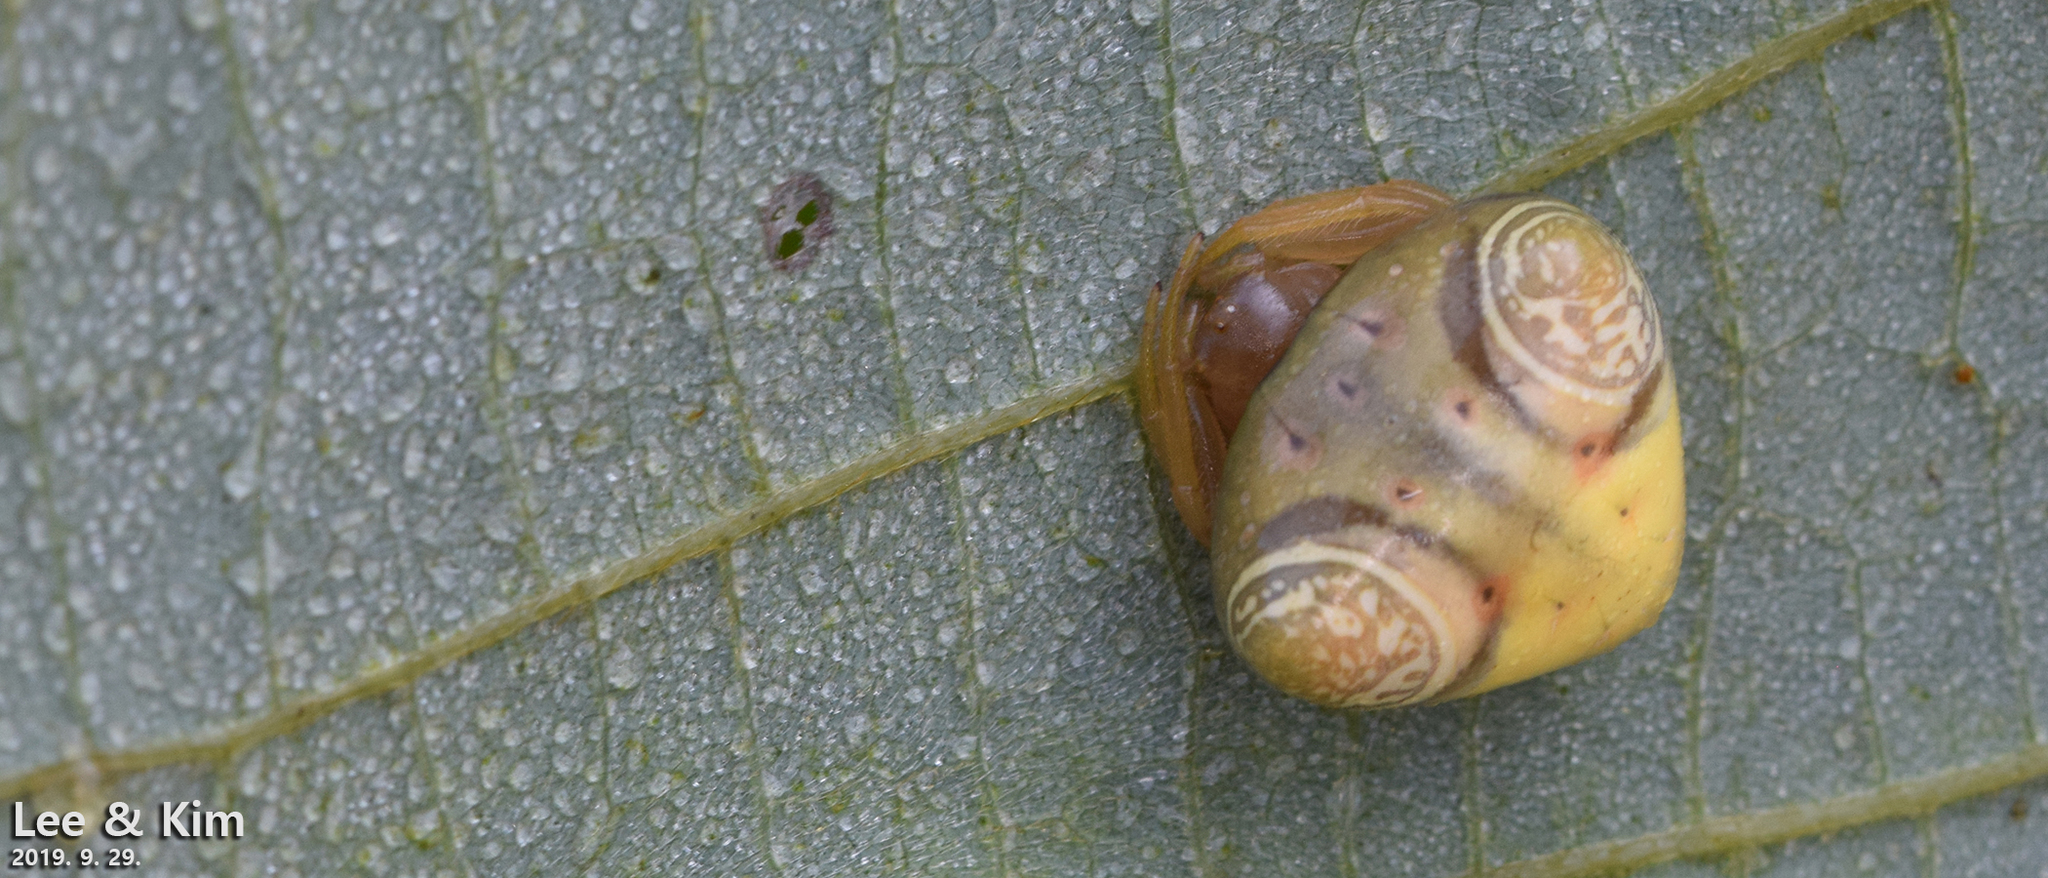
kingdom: Animalia
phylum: Arthropoda
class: Arachnida
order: Araneae
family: Araneidae
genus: Cyrtarachne
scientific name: Cyrtarachne inaequalis
